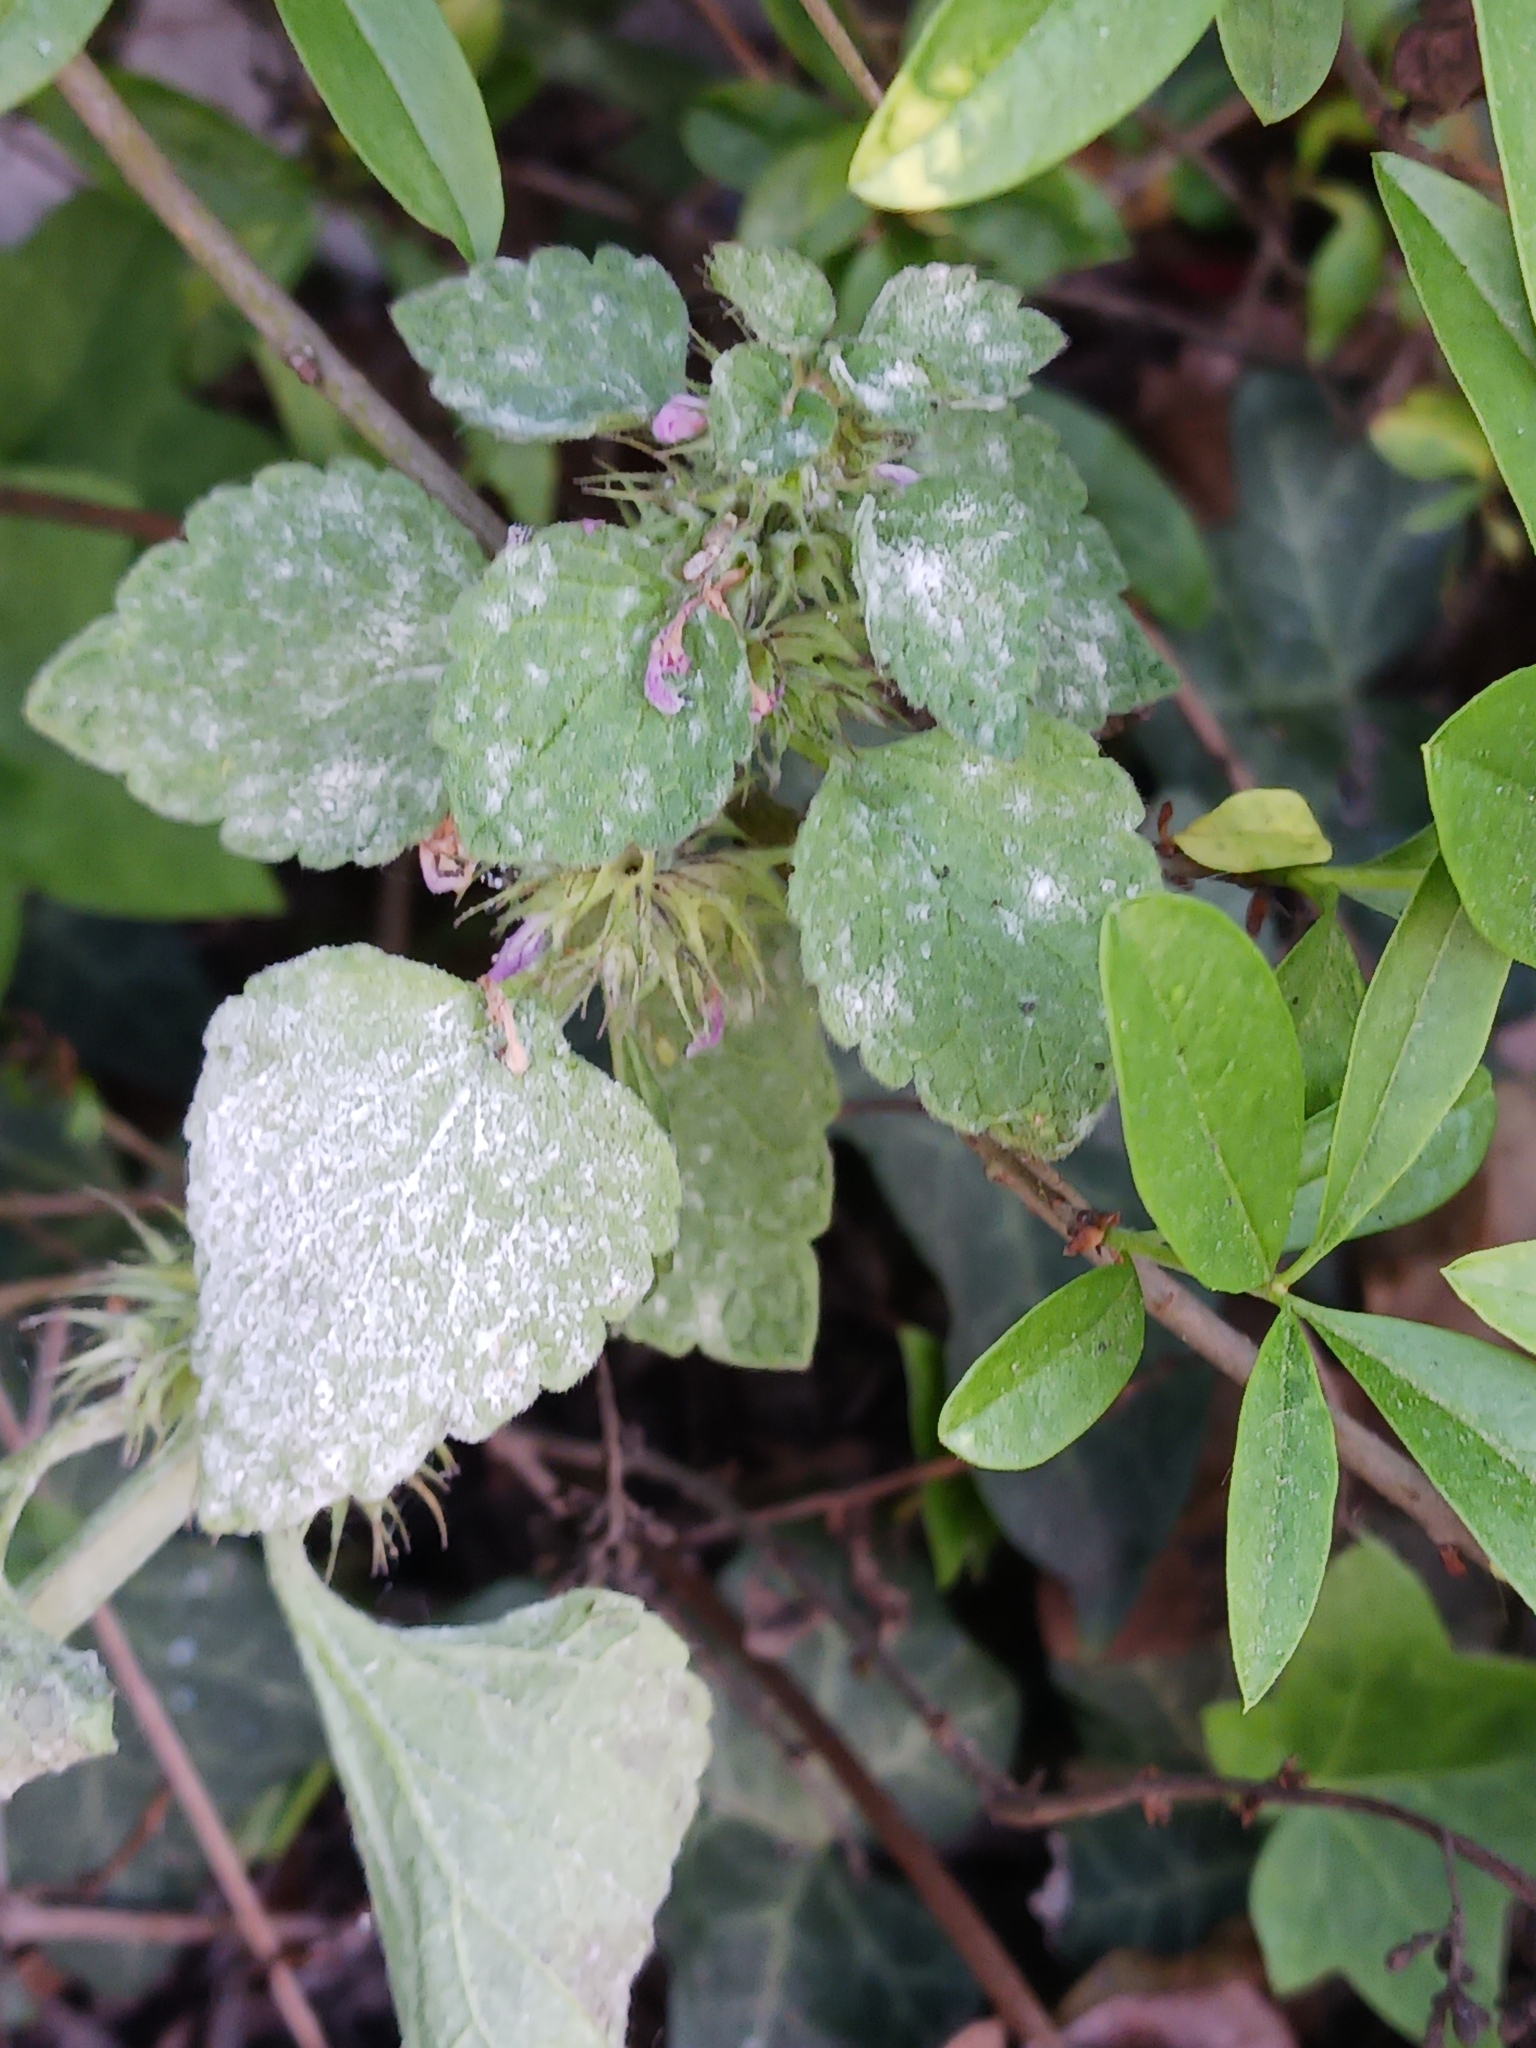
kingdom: Fungi
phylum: Ascomycota
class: Leotiomycetes
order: Helotiales
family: Erysiphaceae
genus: Neoerysiphe
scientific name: Neoerysiphe galeopsidis
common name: Mint mildew
